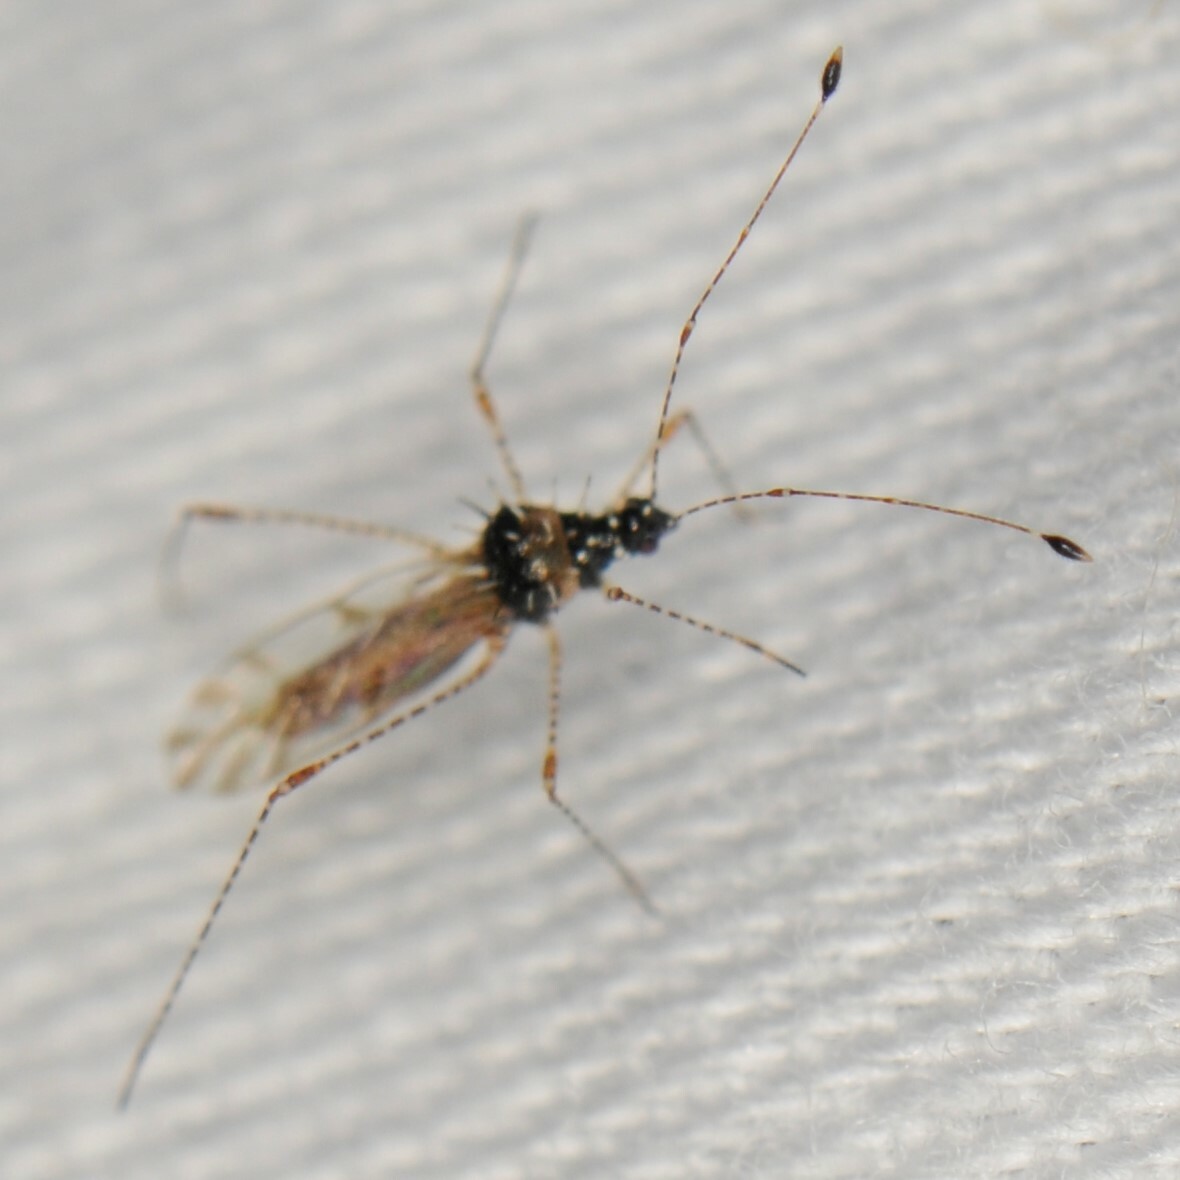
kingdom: Animalia
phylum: Arthropoda
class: Insecta
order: Hemiptera
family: Berytidae
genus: Pronotacantha
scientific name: Pronotacantha annulata
